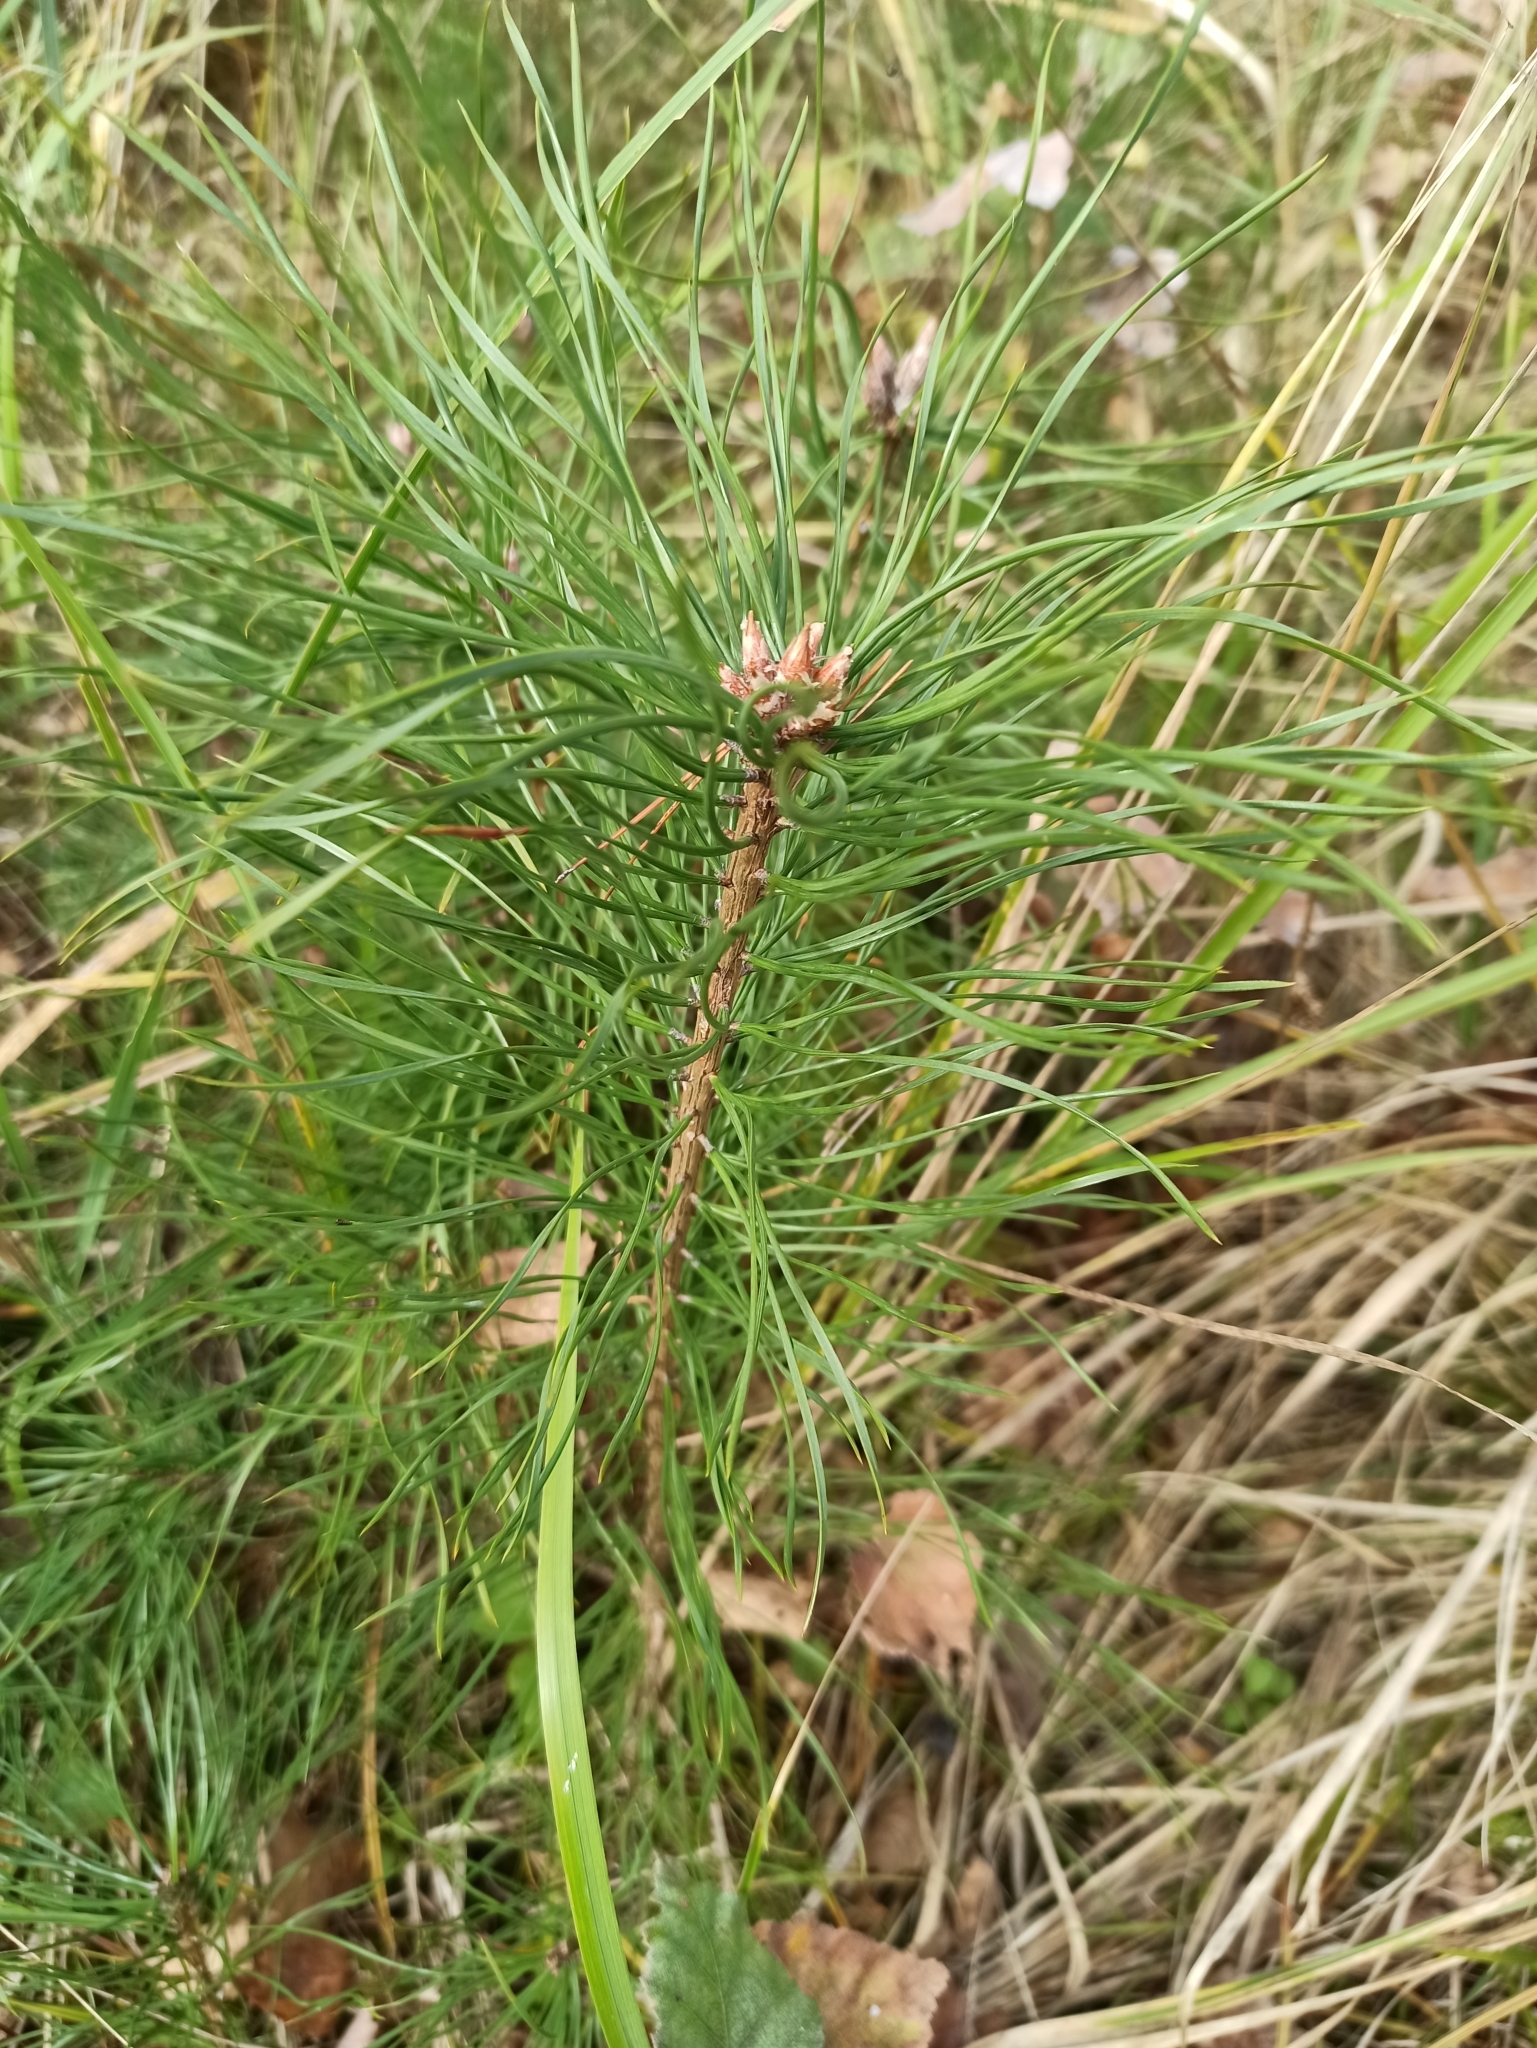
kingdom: Plantae
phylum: Tracheophyta
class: Pinopsida
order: Pinales
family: Pinaceae
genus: Pinus
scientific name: Pinus sylvestris
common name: Scots pine
